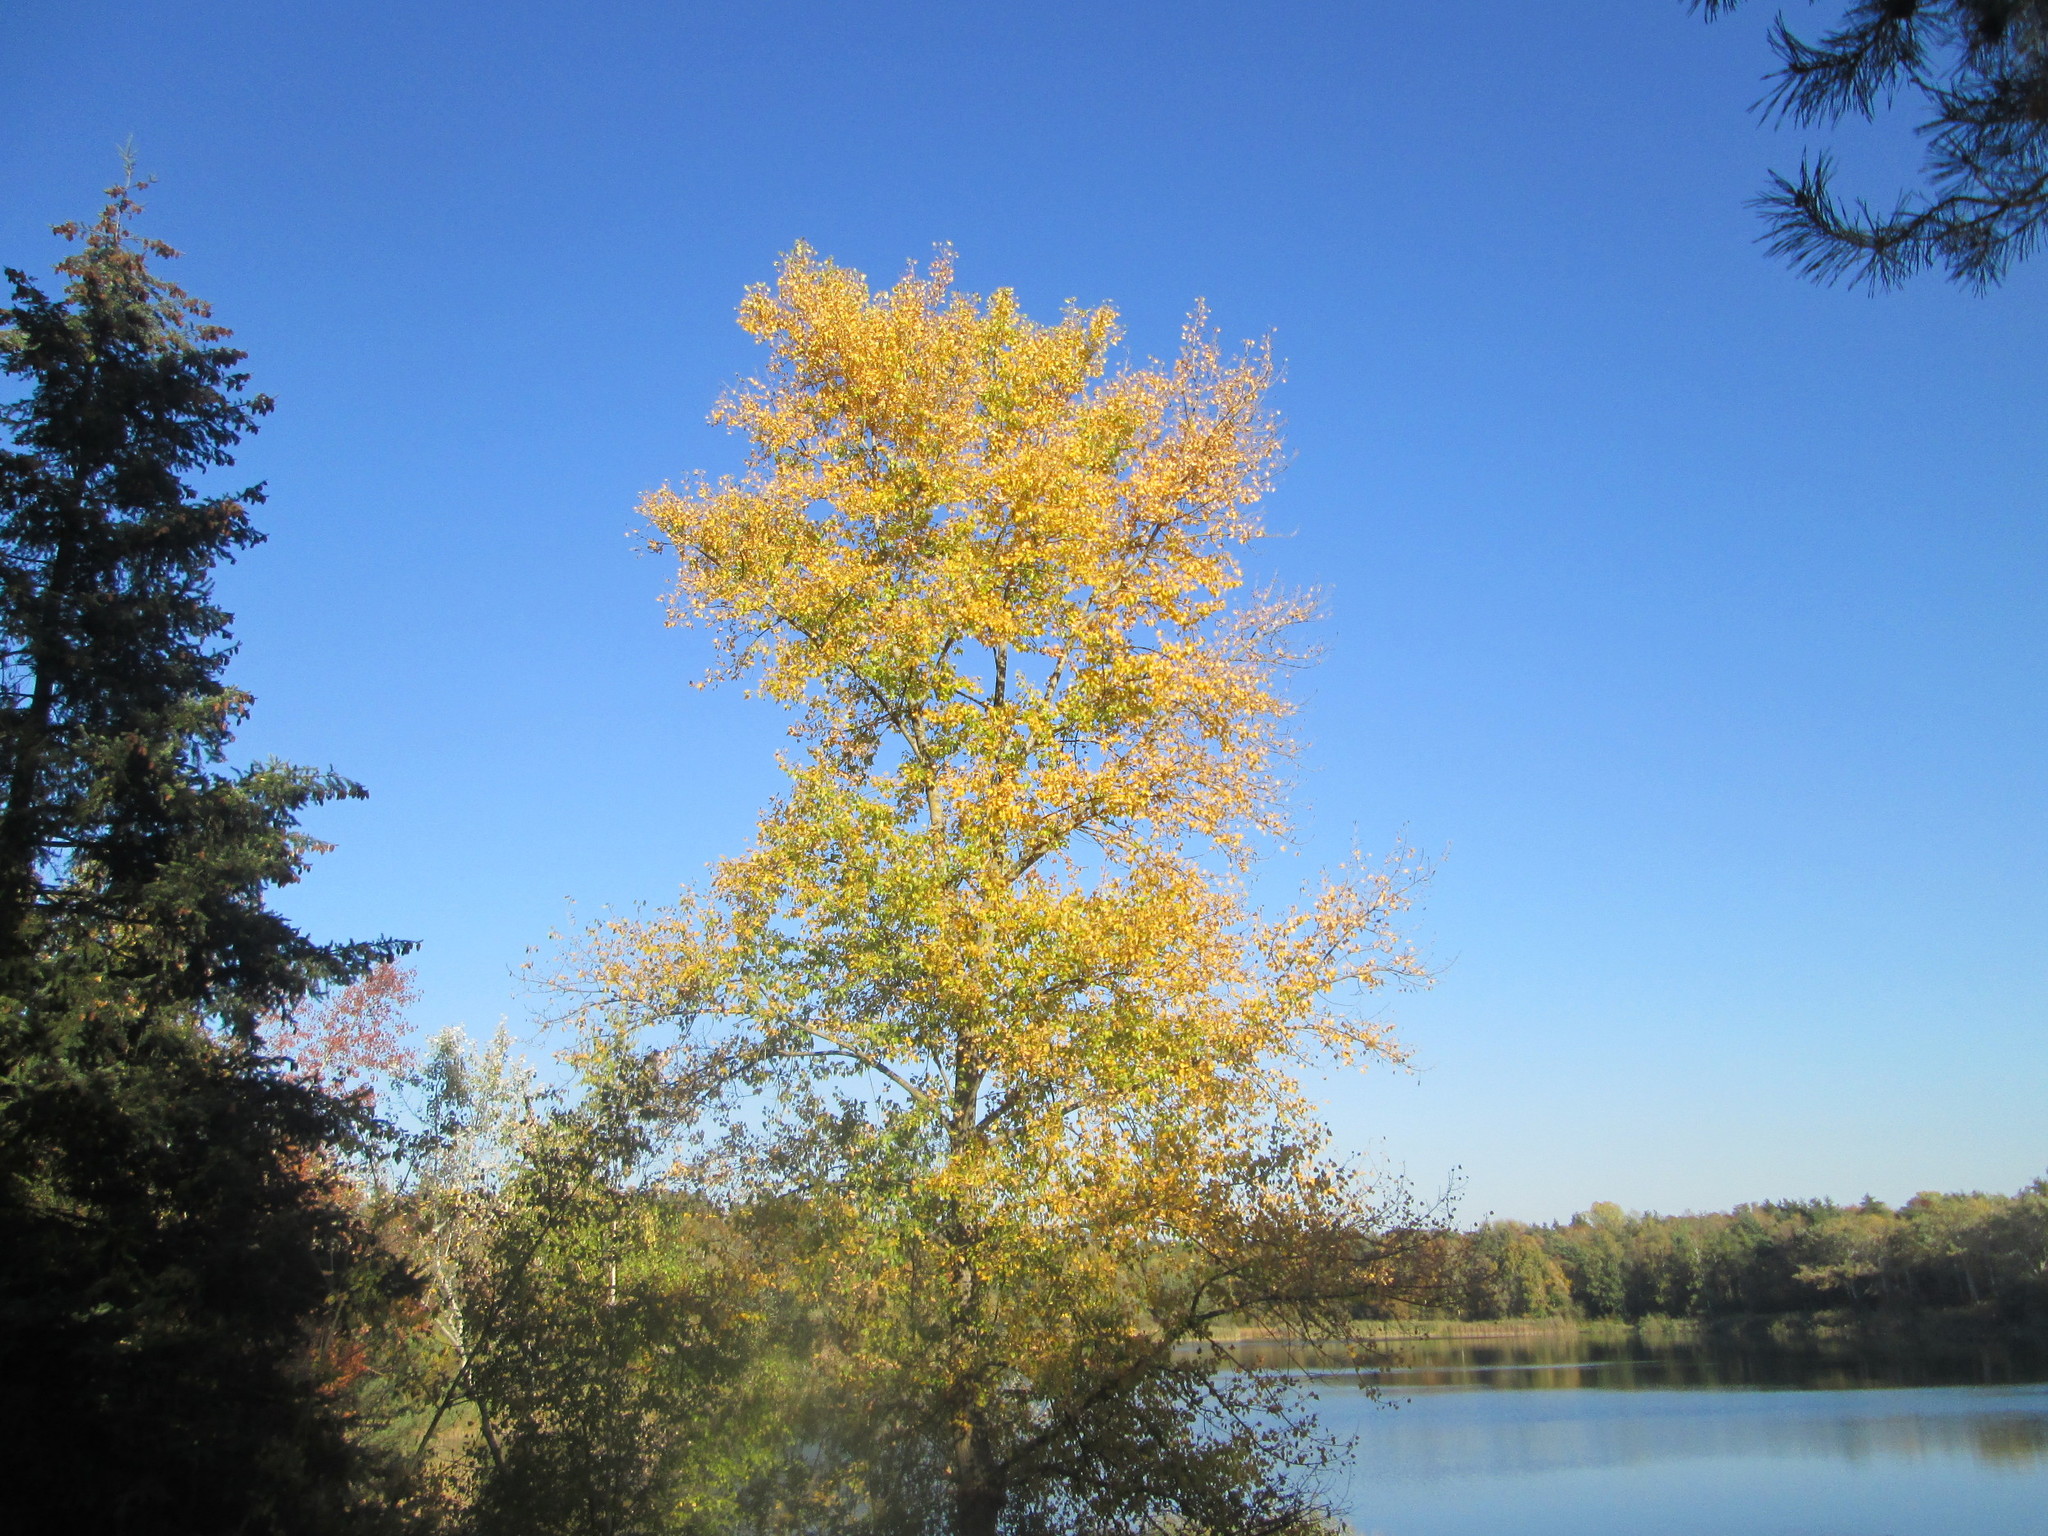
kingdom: Plantae
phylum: Tracheophyta
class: Magnoliopsida
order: Malpighiales
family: Salicaceae
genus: Populus
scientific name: Populus tremula
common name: European aspen
